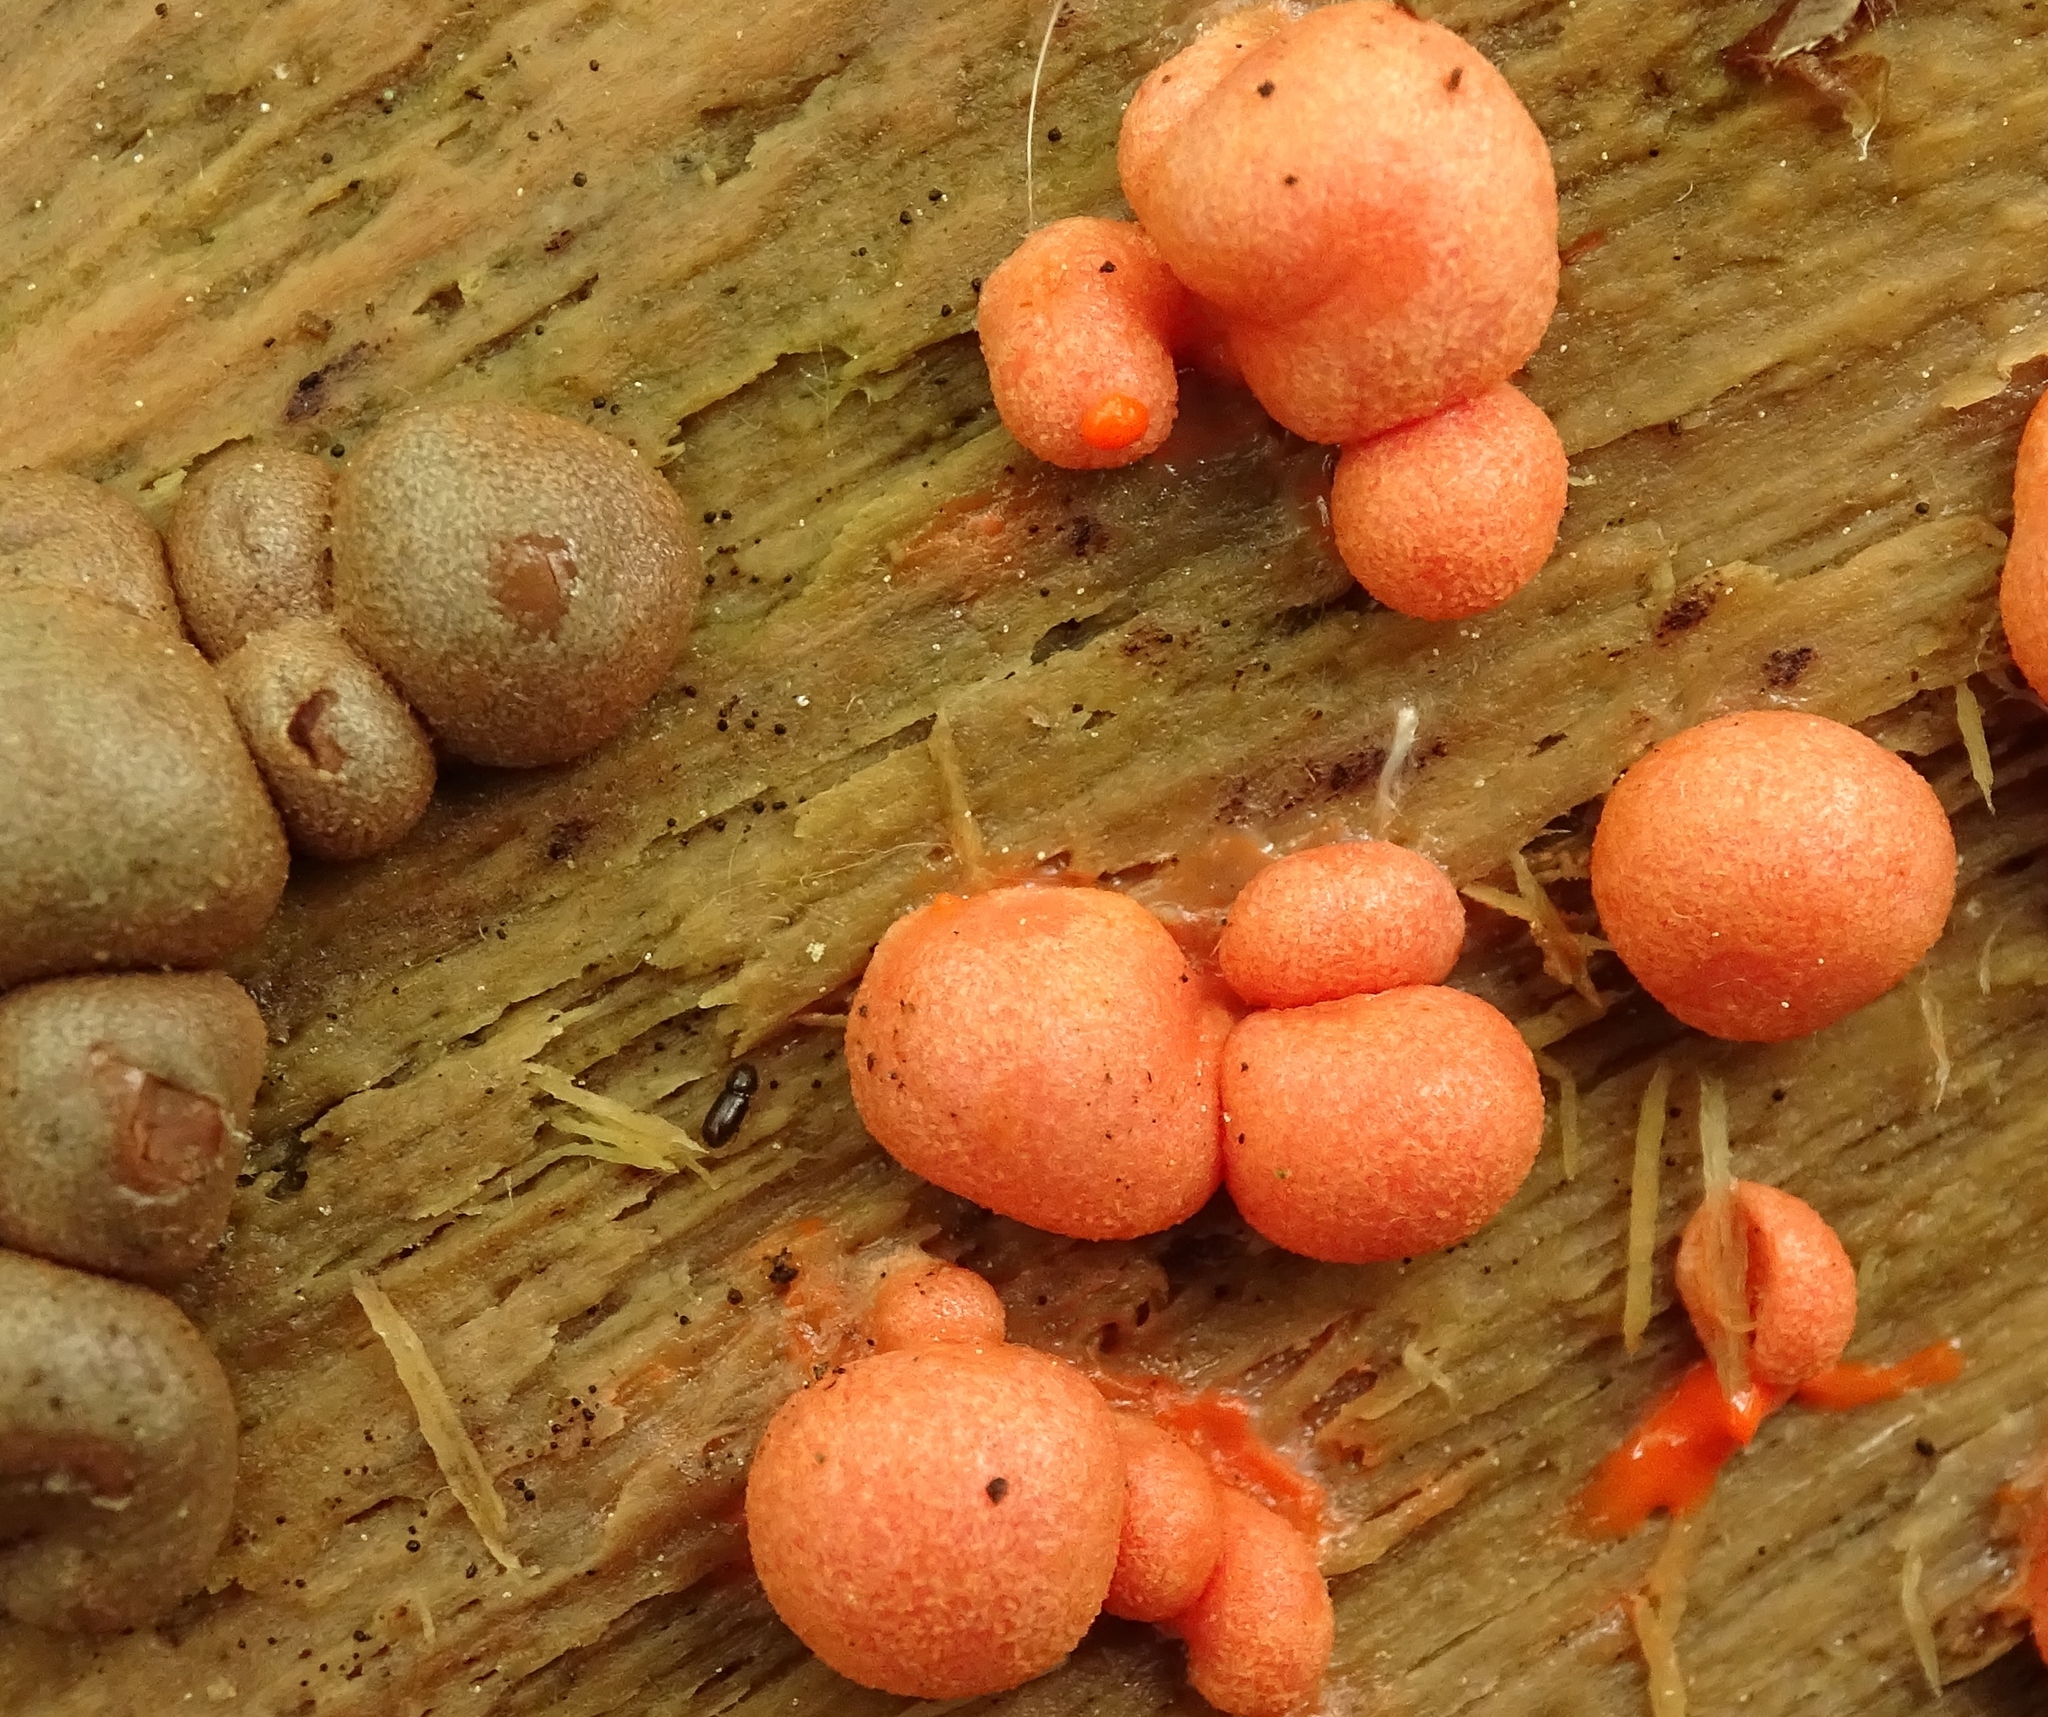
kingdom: Protozoa
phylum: Mycetozoa
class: Myxomycetes
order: Cribrariales
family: Tubiferaceae
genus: Lycogala
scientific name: Lycogala epidendrum
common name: Wolf's milk
